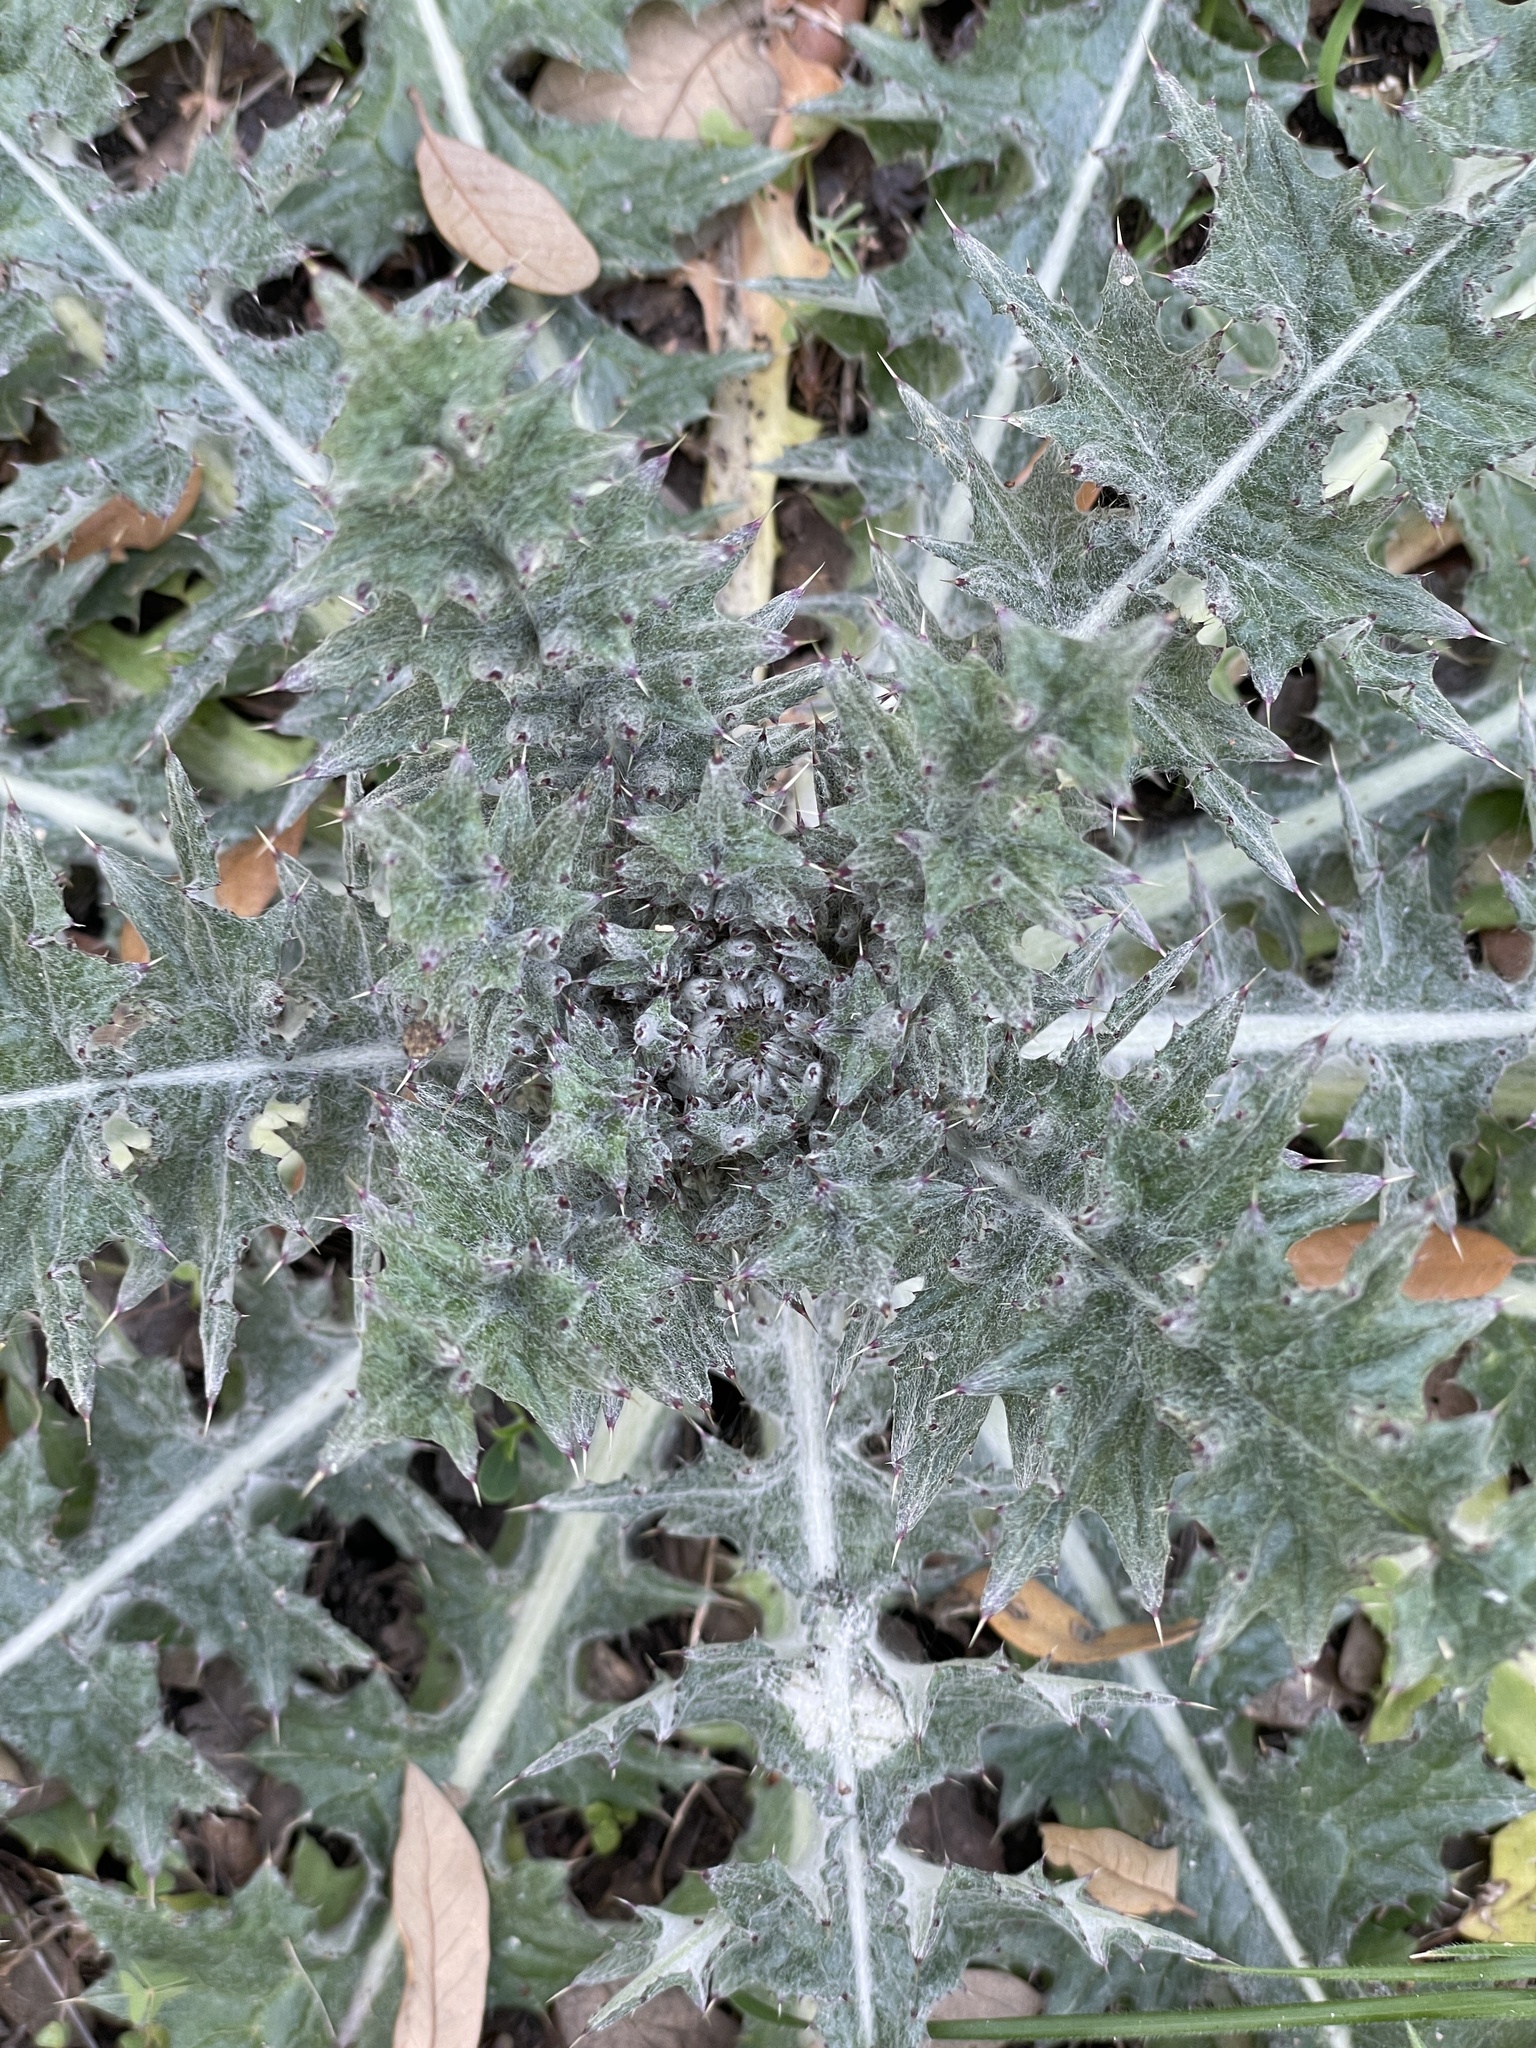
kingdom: Plantae
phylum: Tracheophyta
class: Magnoliopsida
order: Asterales
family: Asteraceae
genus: Cirsium
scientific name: Cirsium texanum
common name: Texas purple thistle
